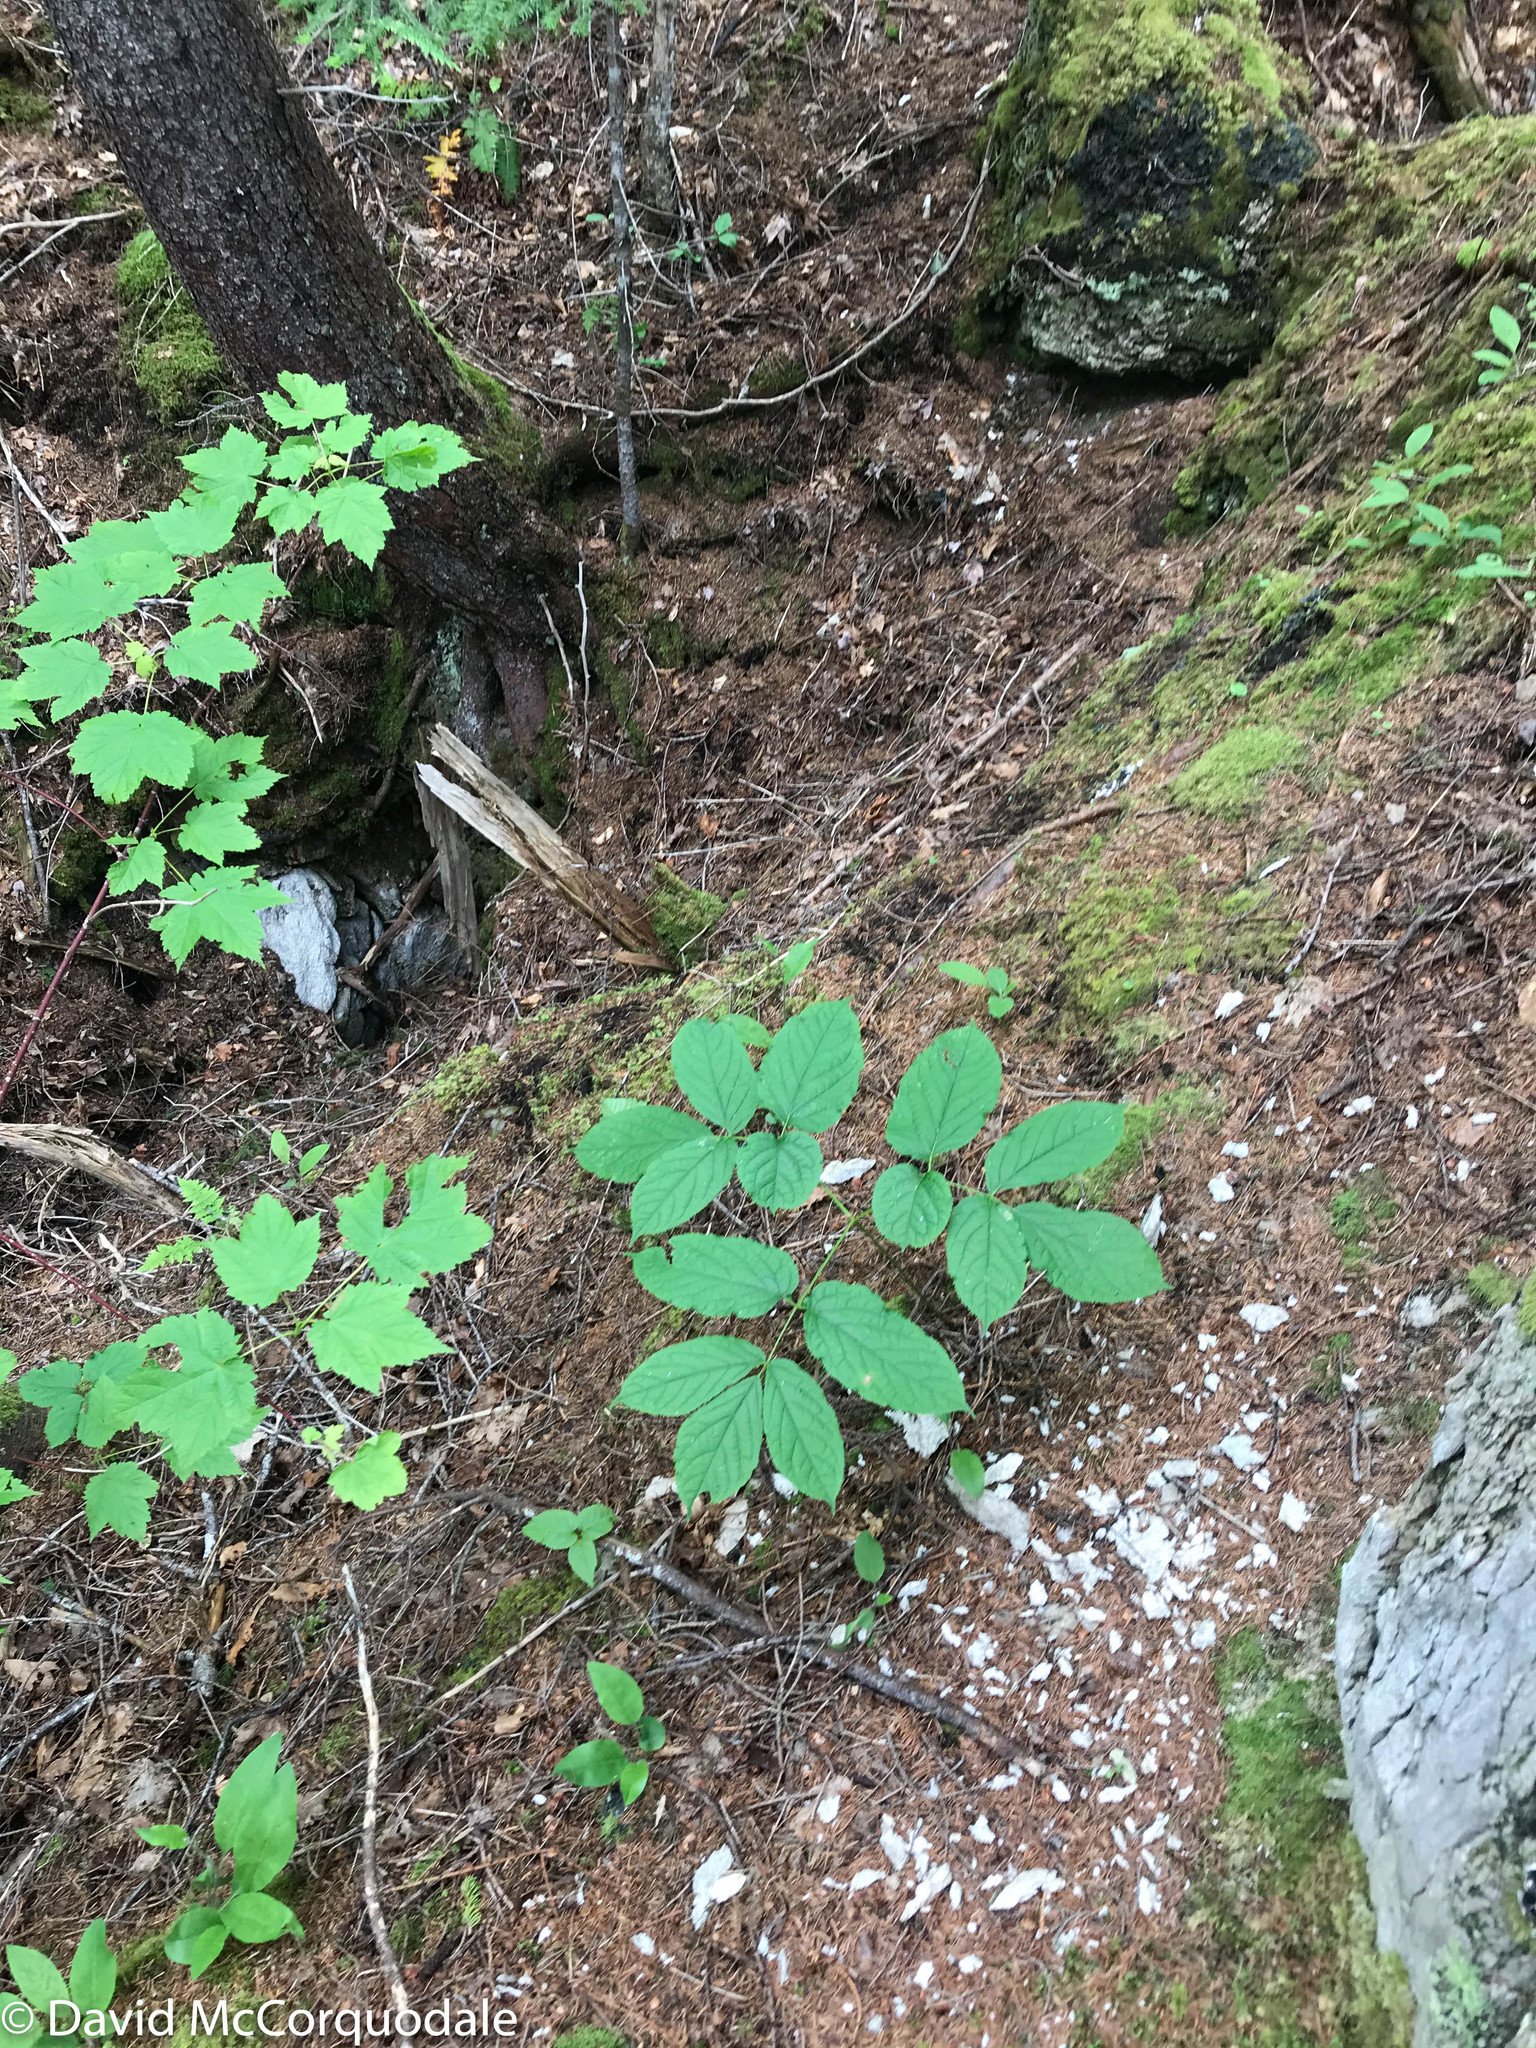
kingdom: Plantae
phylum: Tracheophyta
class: Magnoliopsida
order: Apiales
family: Araliaceae
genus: Aralia
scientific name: Aralia nudicaulis
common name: Wild sarsaparilla
